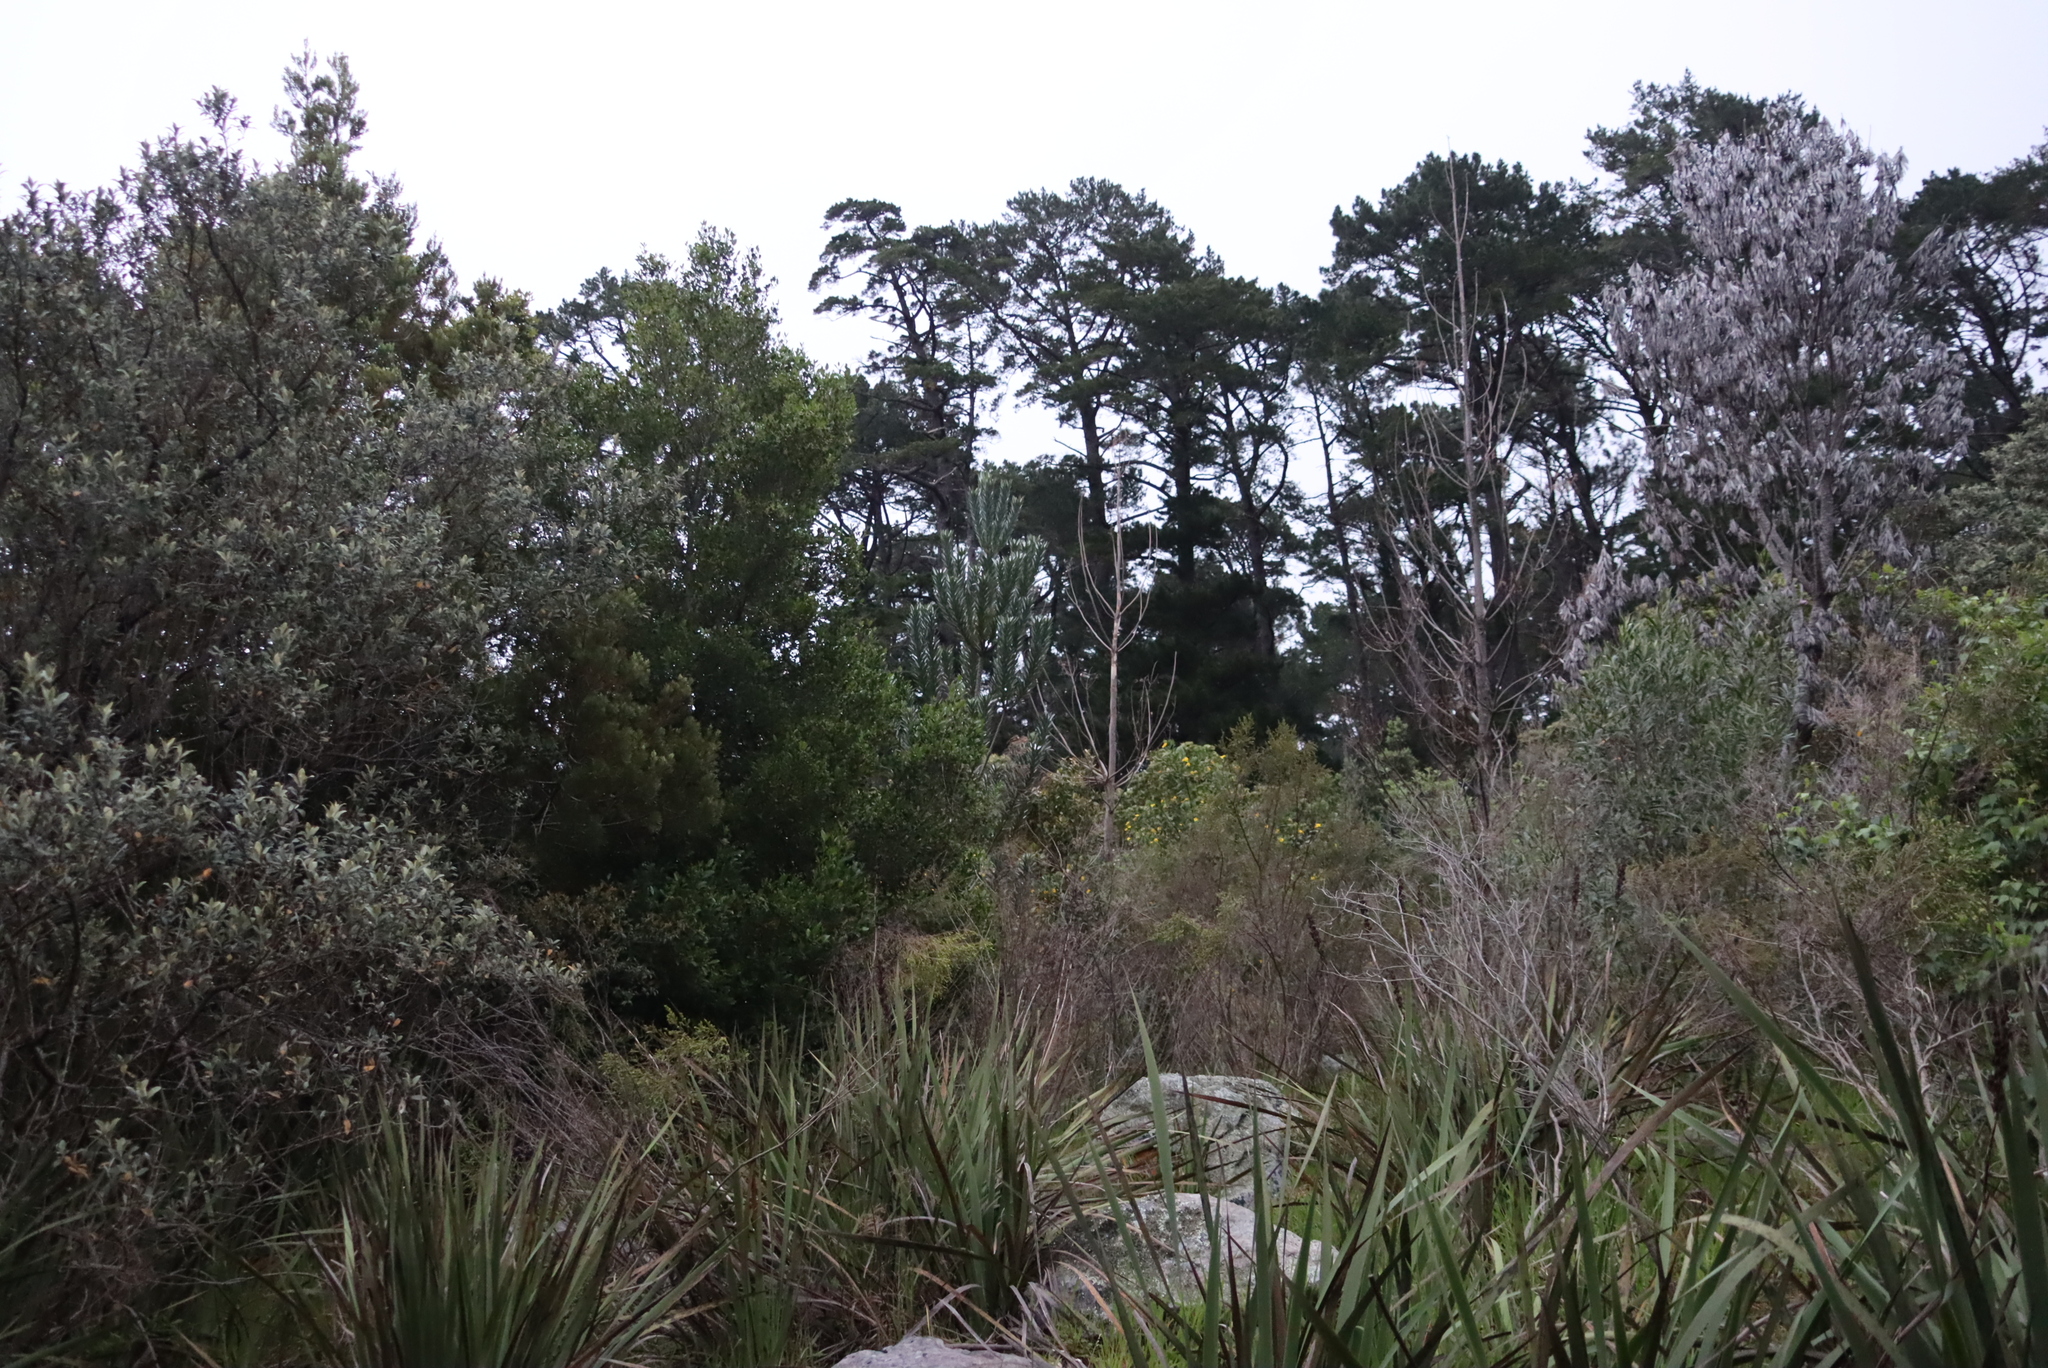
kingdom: Plantae
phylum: Tracheophyta
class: Magnoliopsida
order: Proteales
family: Proteaceae
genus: Leucadendron
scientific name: Leucadendron argenteum
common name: Cape silver tree
